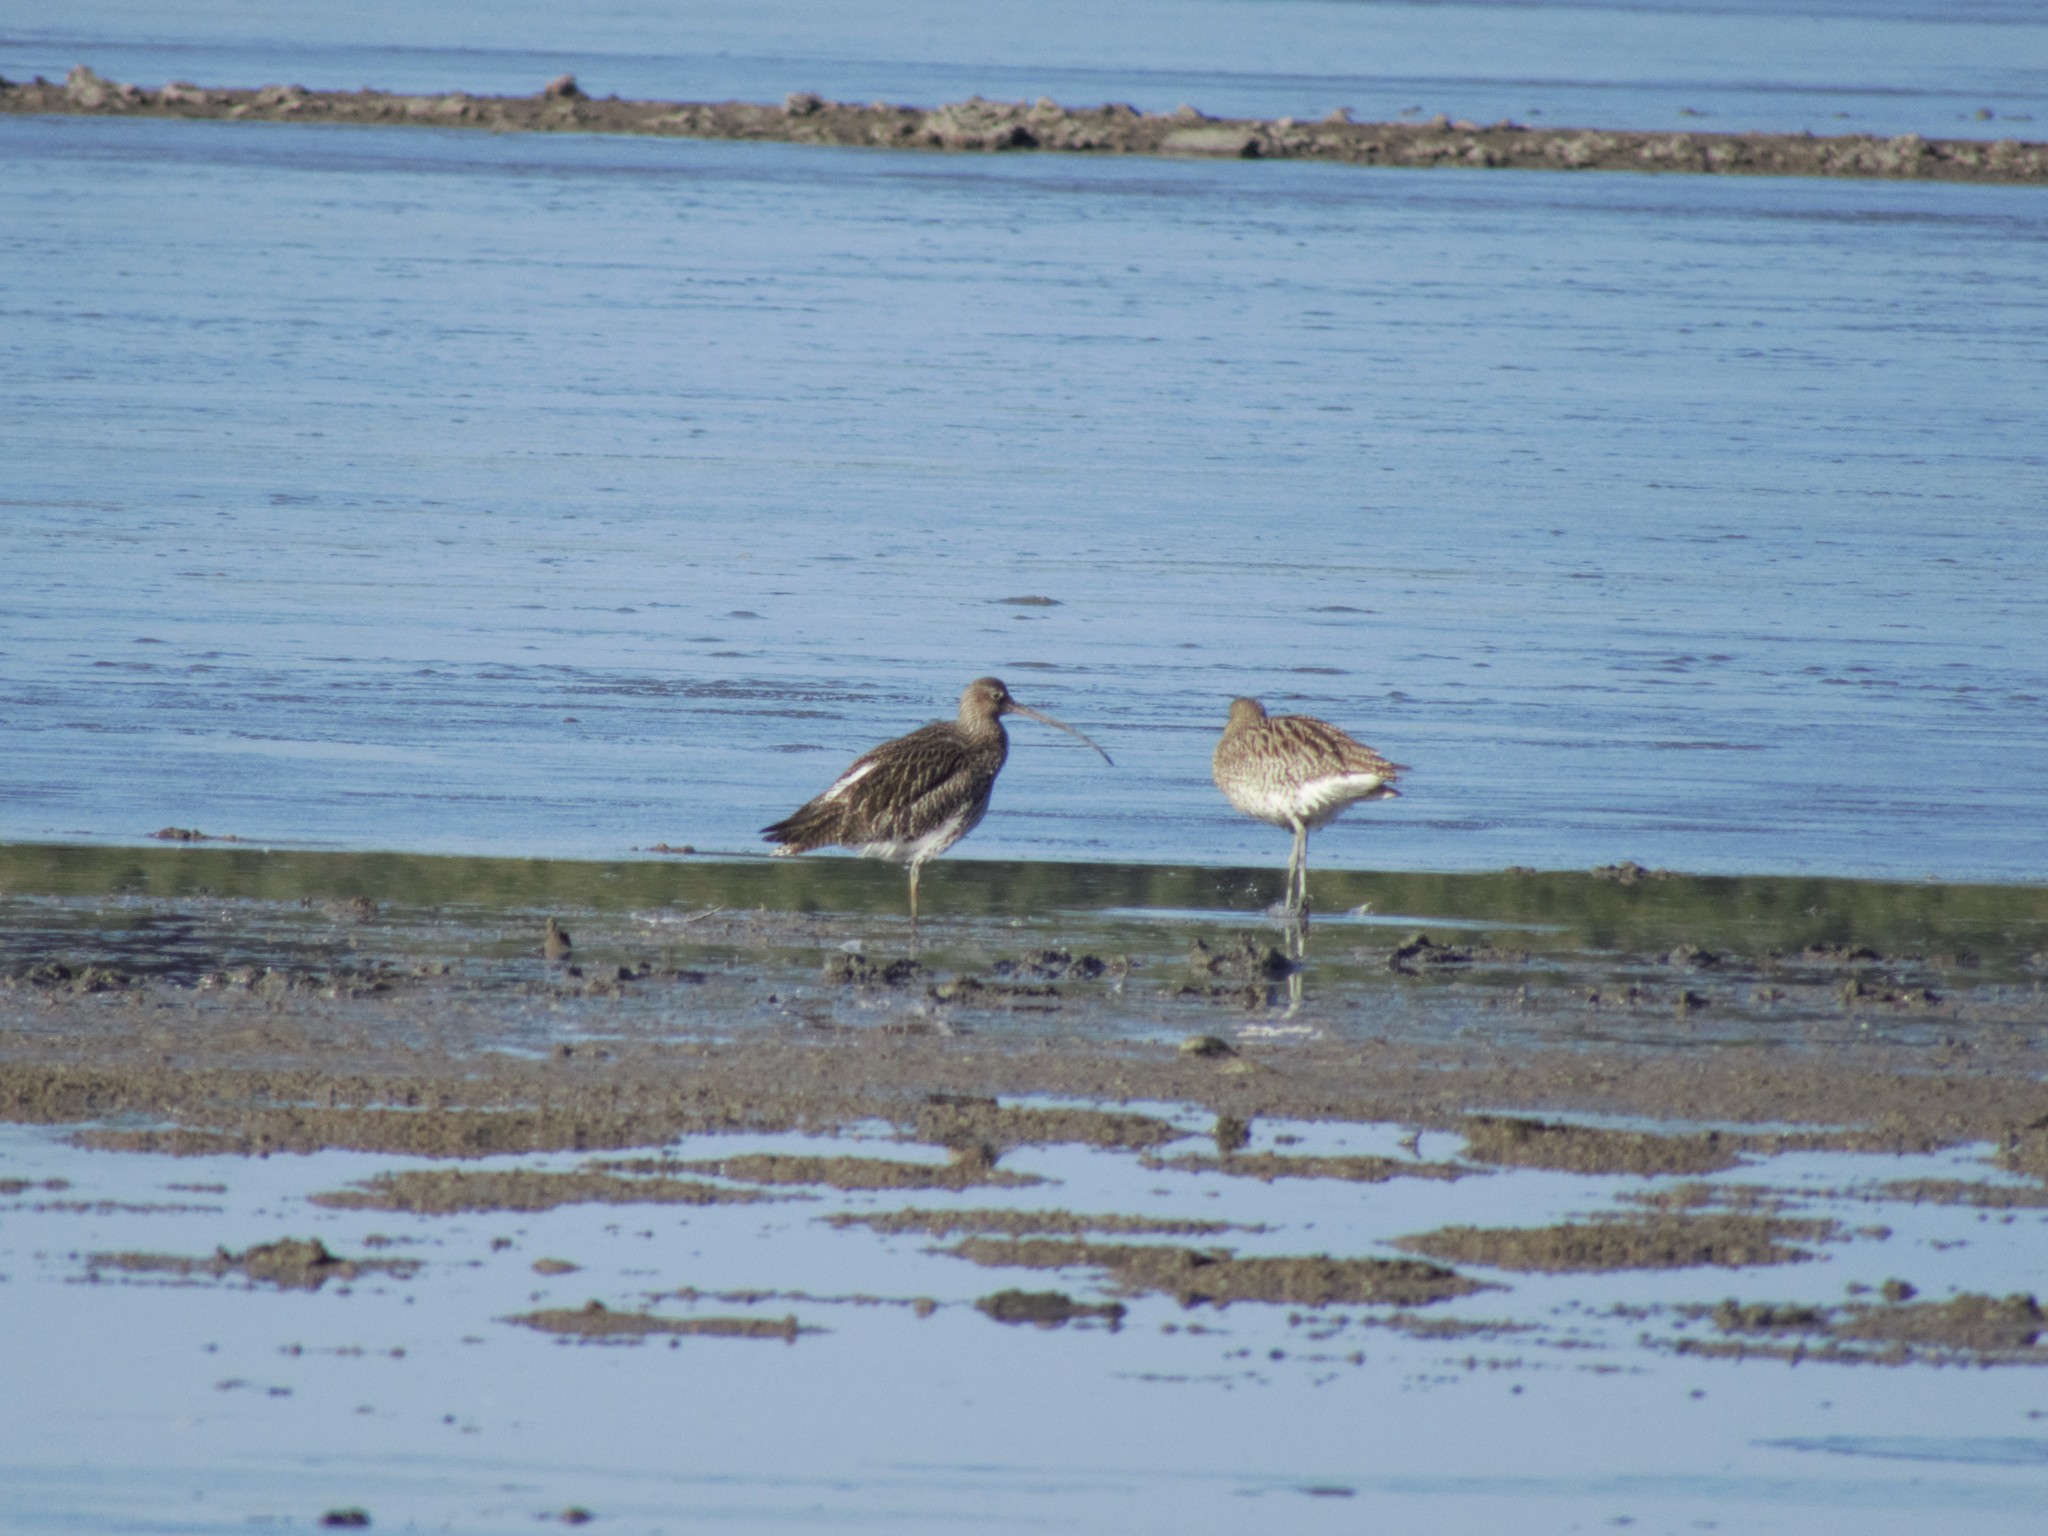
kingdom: Animalia
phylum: Chordata
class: Aves
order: Charadriiformes
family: Scolopacidae
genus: Numenius
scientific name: Numenius arquata
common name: Eurasian curlew
